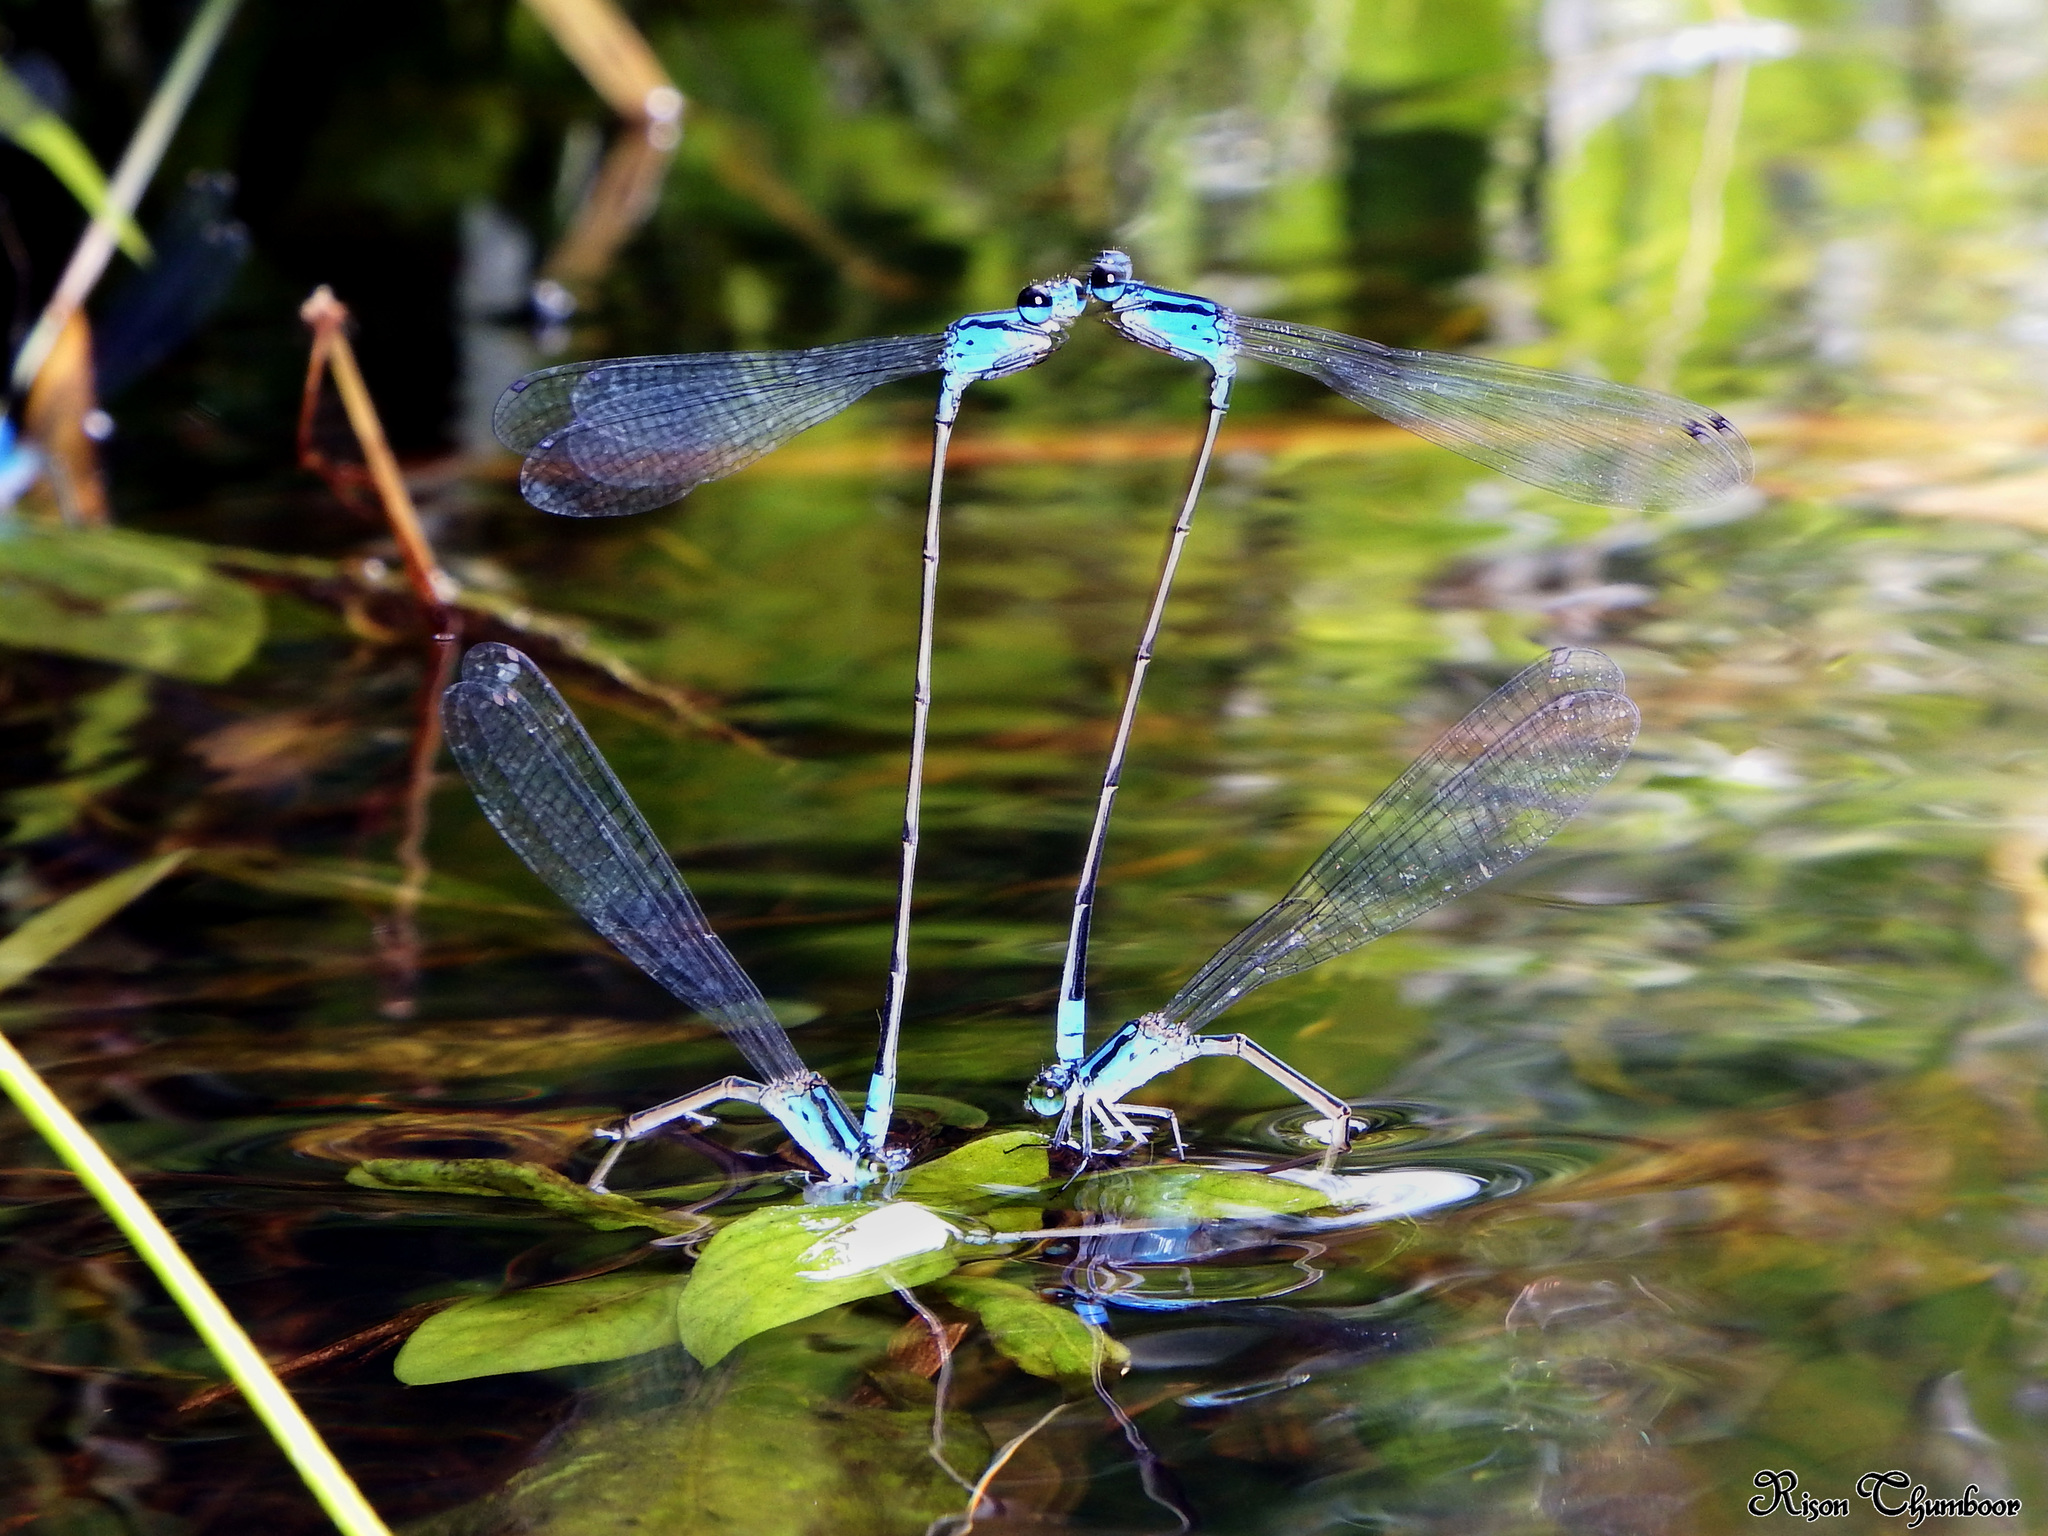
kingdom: Animalia
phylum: Arthropoda
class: Insecta
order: Odonata
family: Coenagrionidae
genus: Archibasis
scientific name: Archibasis oscillans
